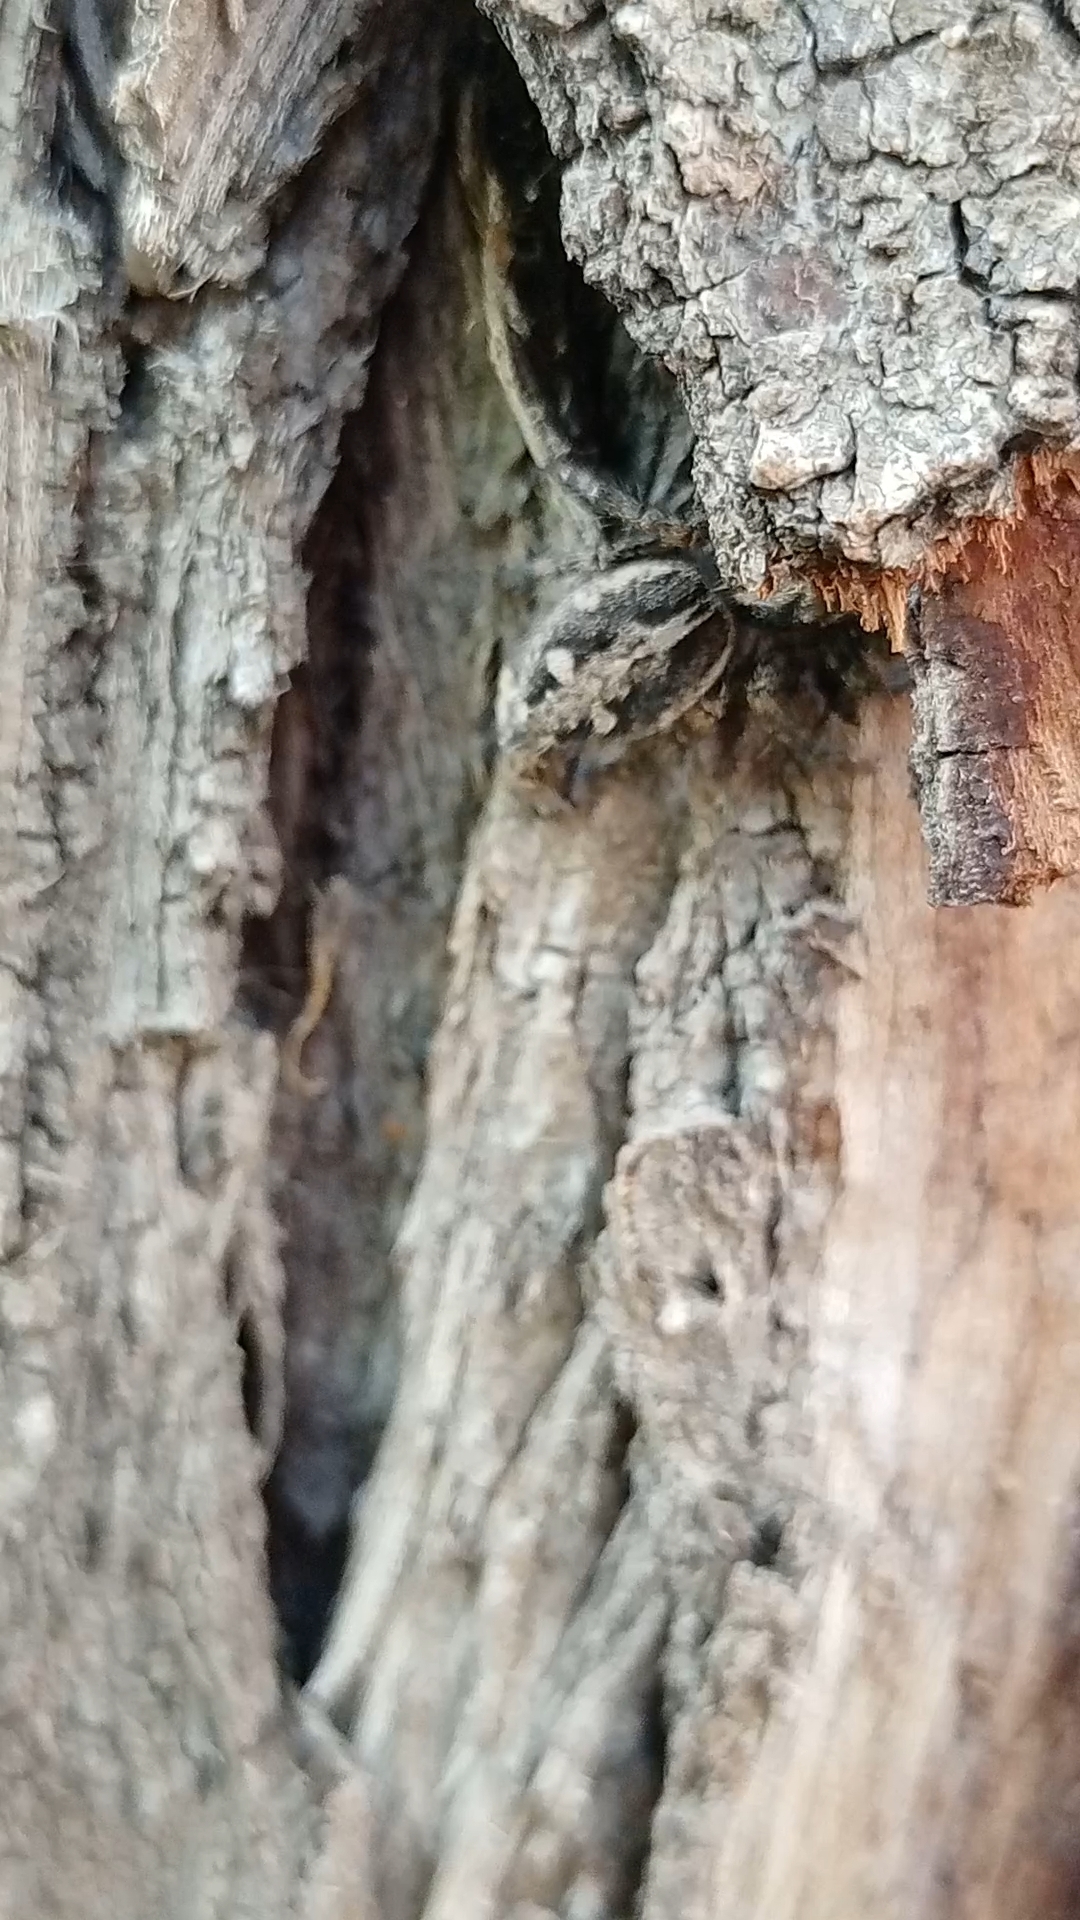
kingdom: Animalia
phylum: Arthropoda
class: Arachnida
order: Araneae
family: Salticidae
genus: Plexippus
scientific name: Plexippus paykulli
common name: Pantropical jumper
